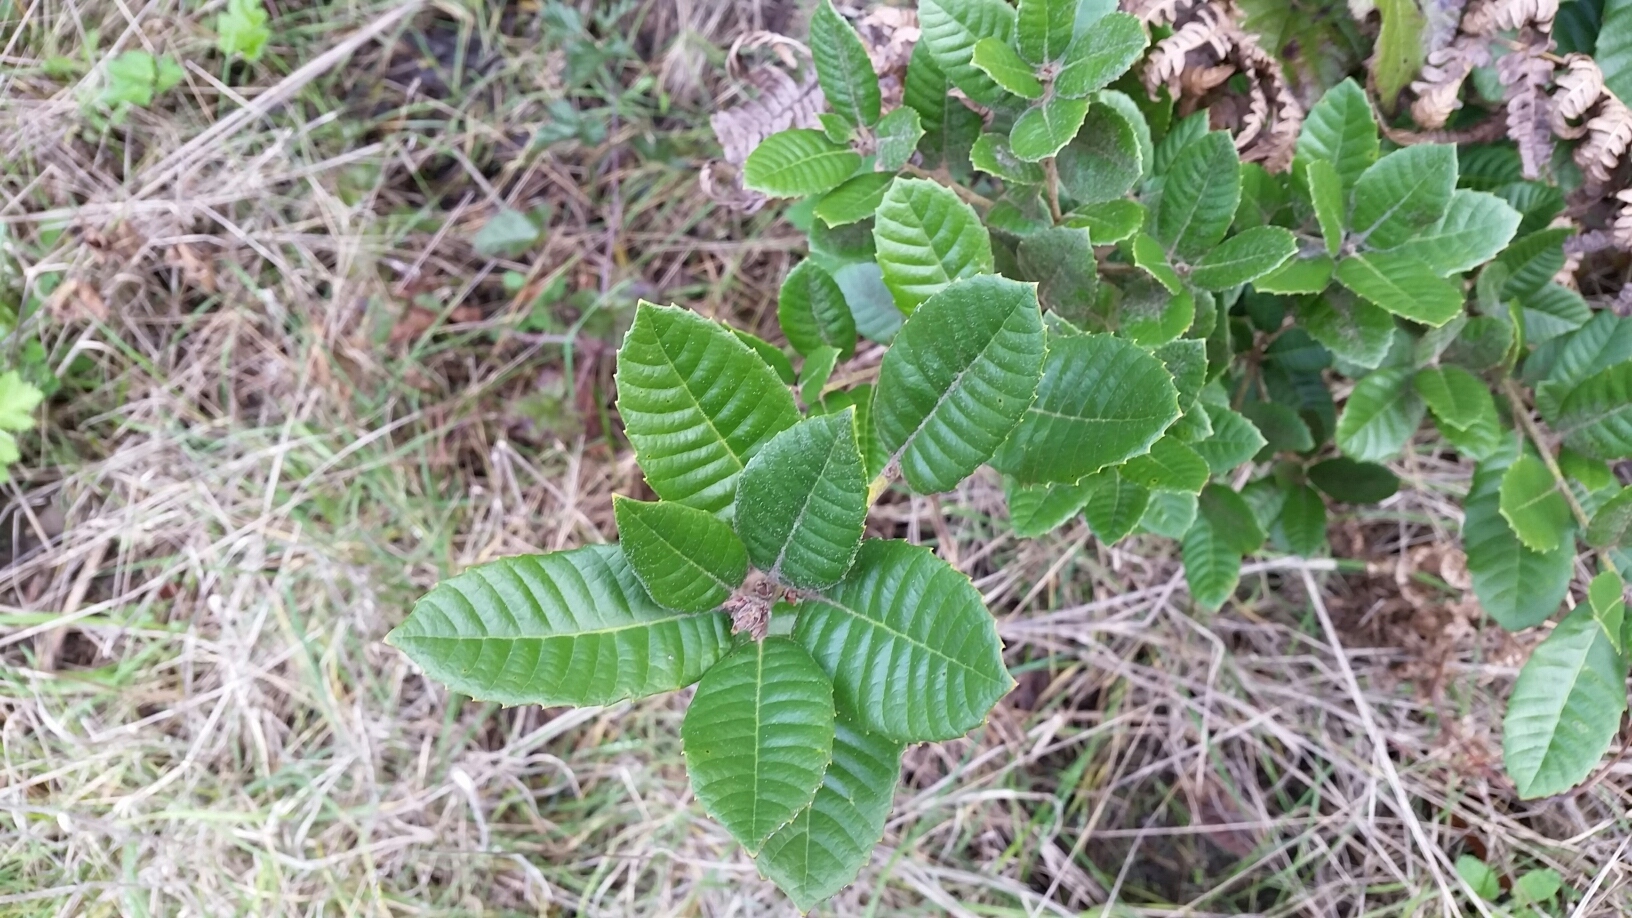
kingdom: Plantae
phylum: Tracheophyta
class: Magnoliopsida
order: Fagales
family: Fagaceae
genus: Notholithocarpus
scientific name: Notholithocarpus densiflorus
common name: Tan bark oak
